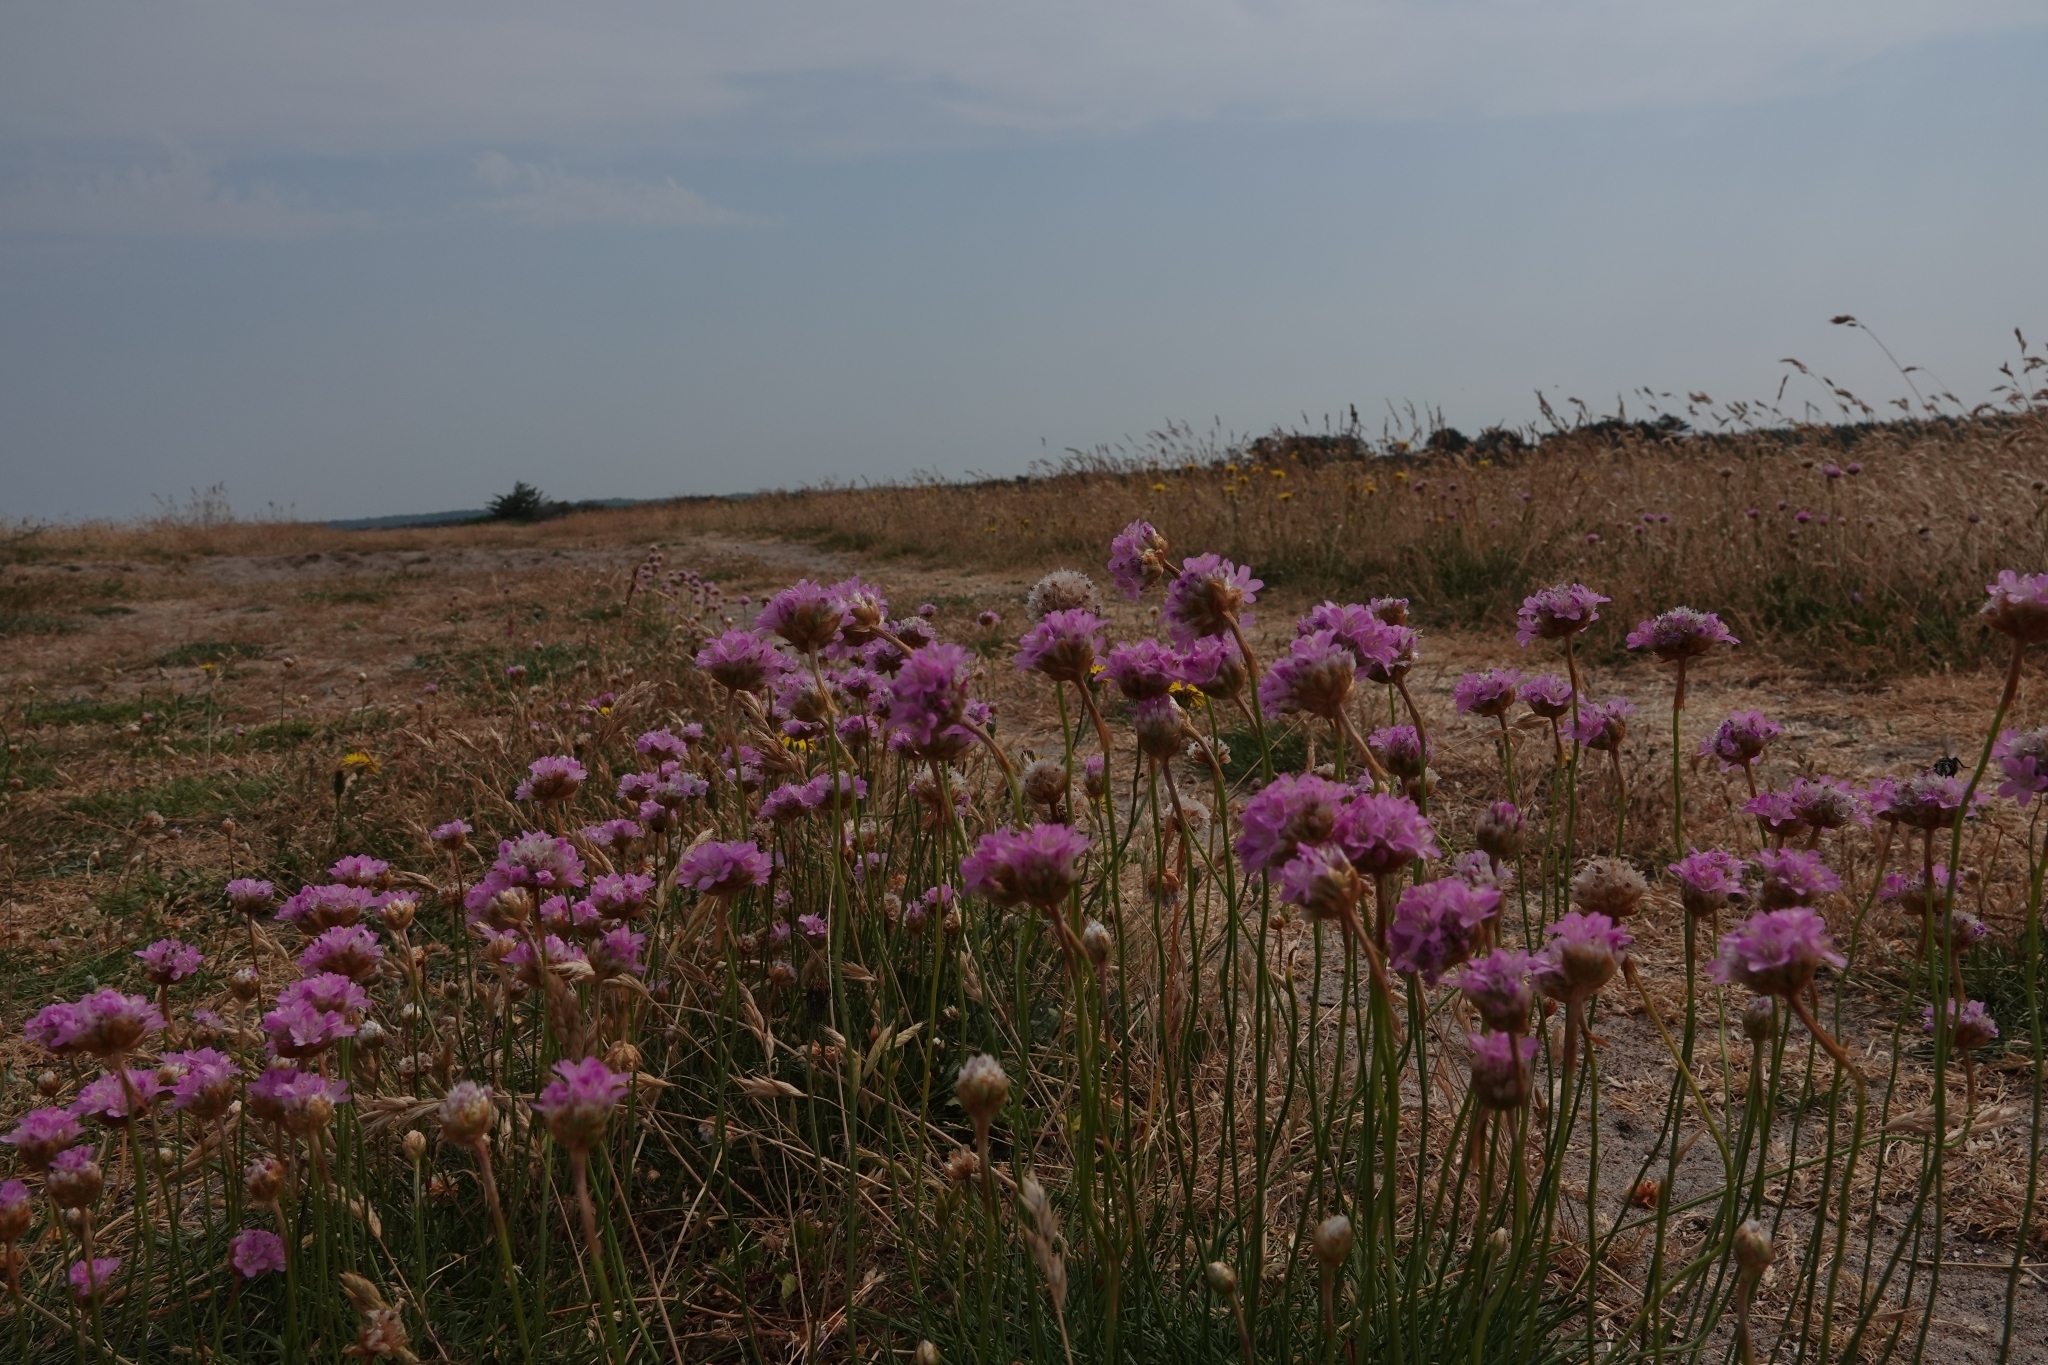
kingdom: Plantae
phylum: Tracheophyta
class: Magnoliopsida
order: Caryophyllales
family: Plumbaginaceae
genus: Armeria
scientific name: Armeria maritima
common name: Thrift
